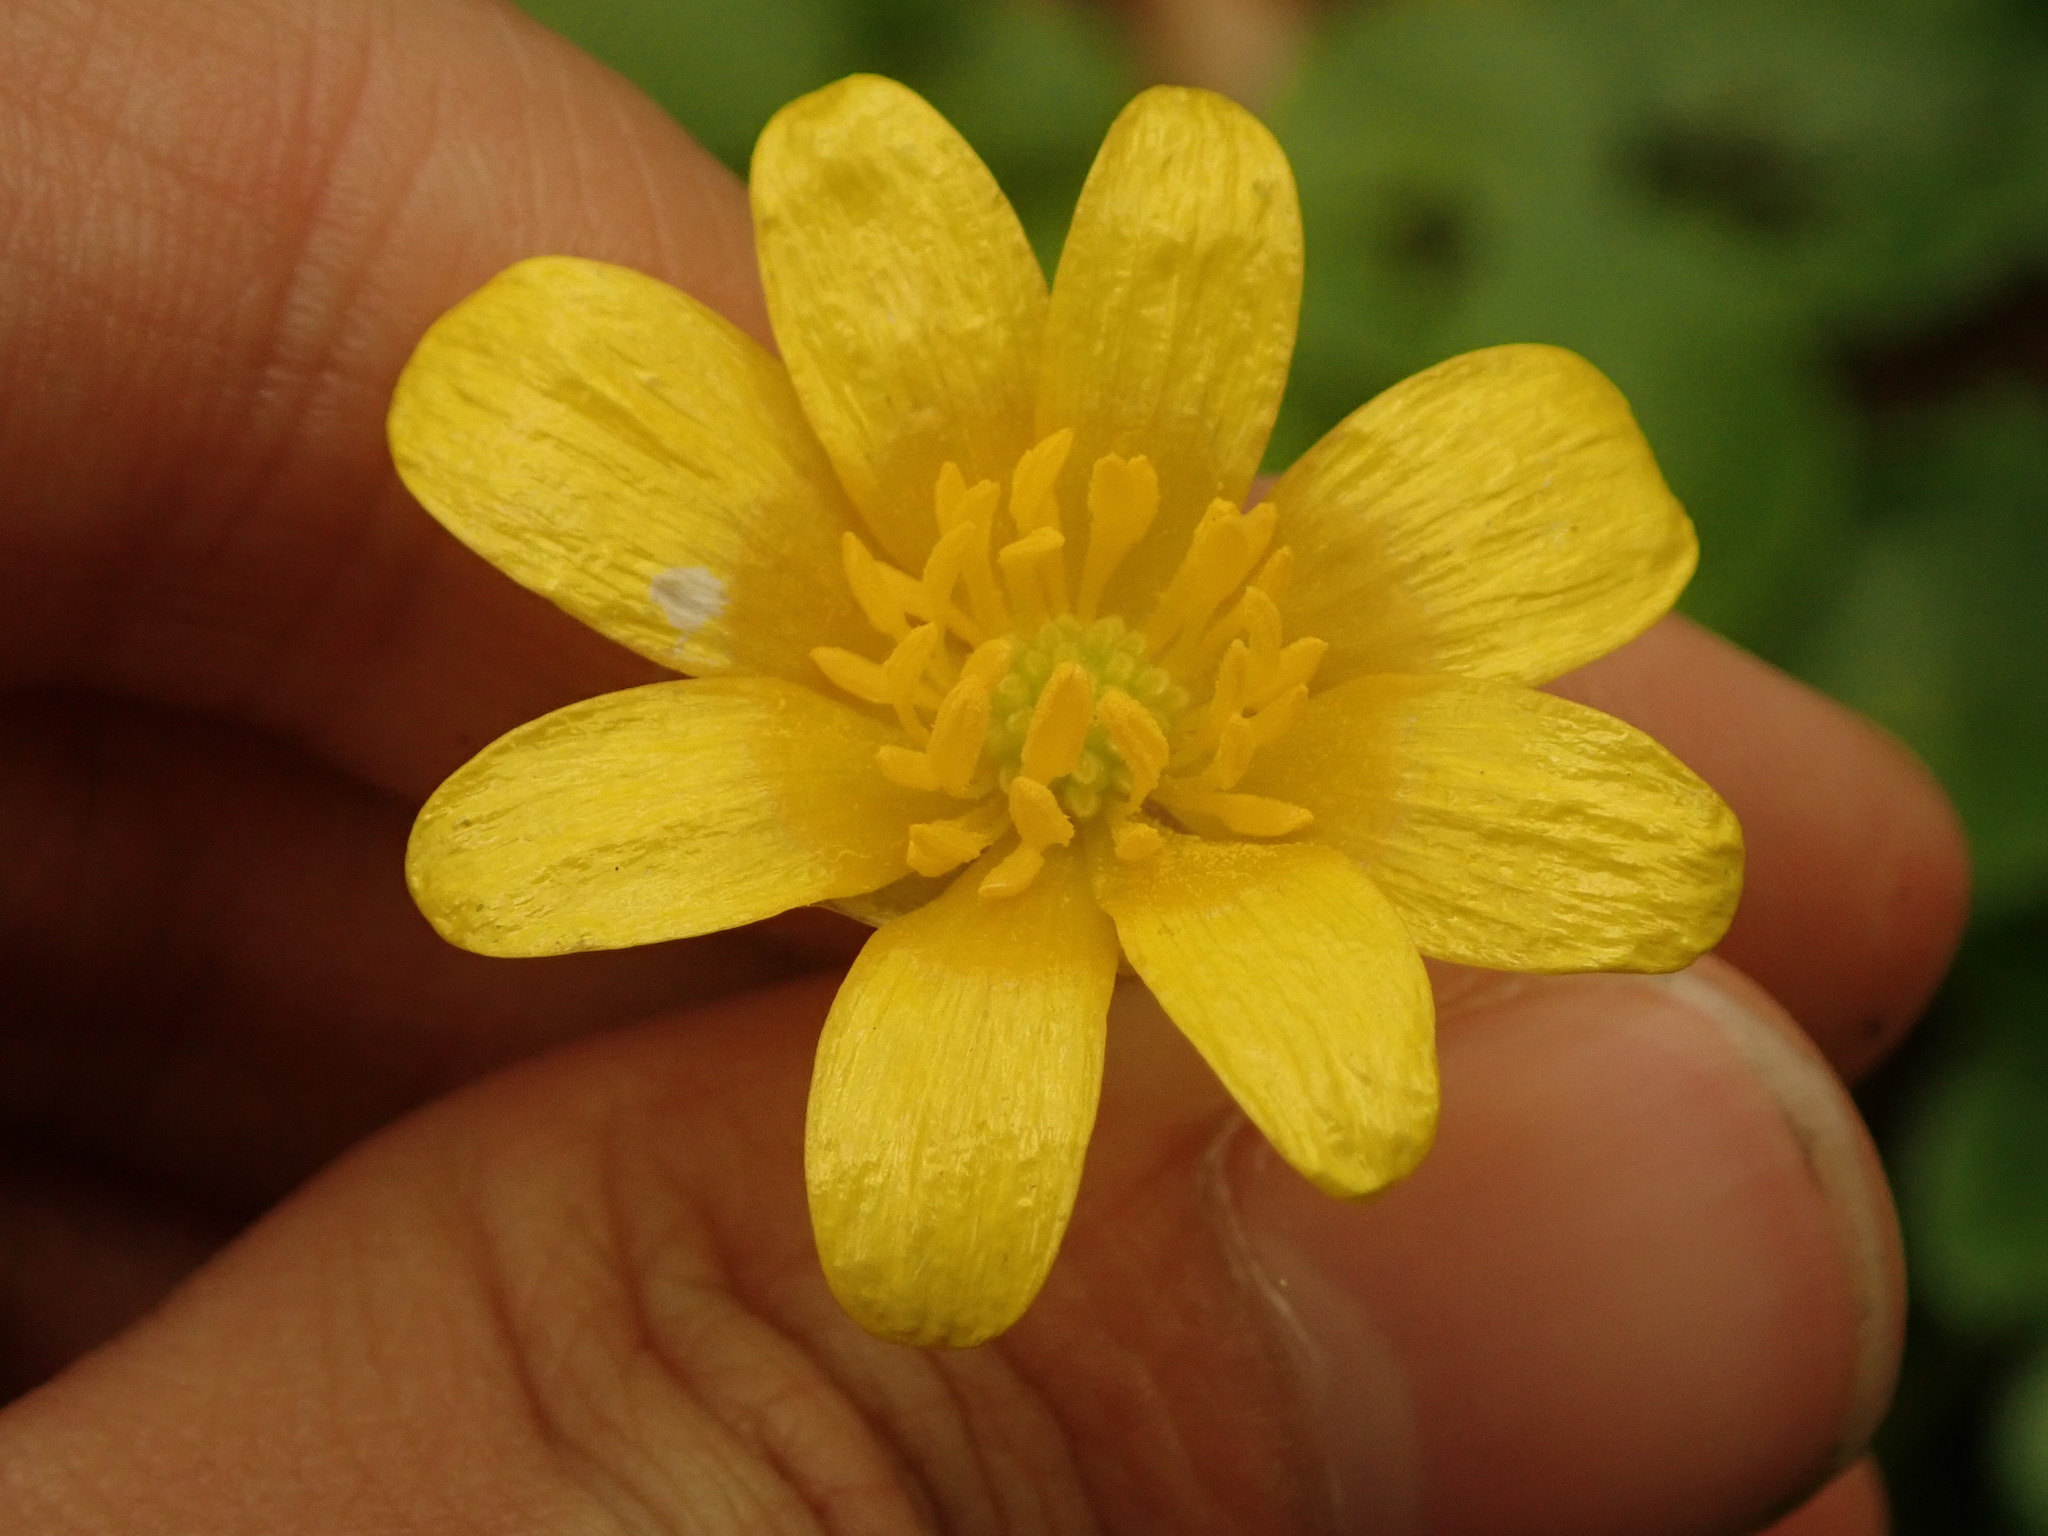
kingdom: Plantae
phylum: Tracheophyta
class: Magnoliopsida
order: Ranunculales
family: Ranunculaceae
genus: Ficaria
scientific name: Ficaria verna
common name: Lesser celandine
